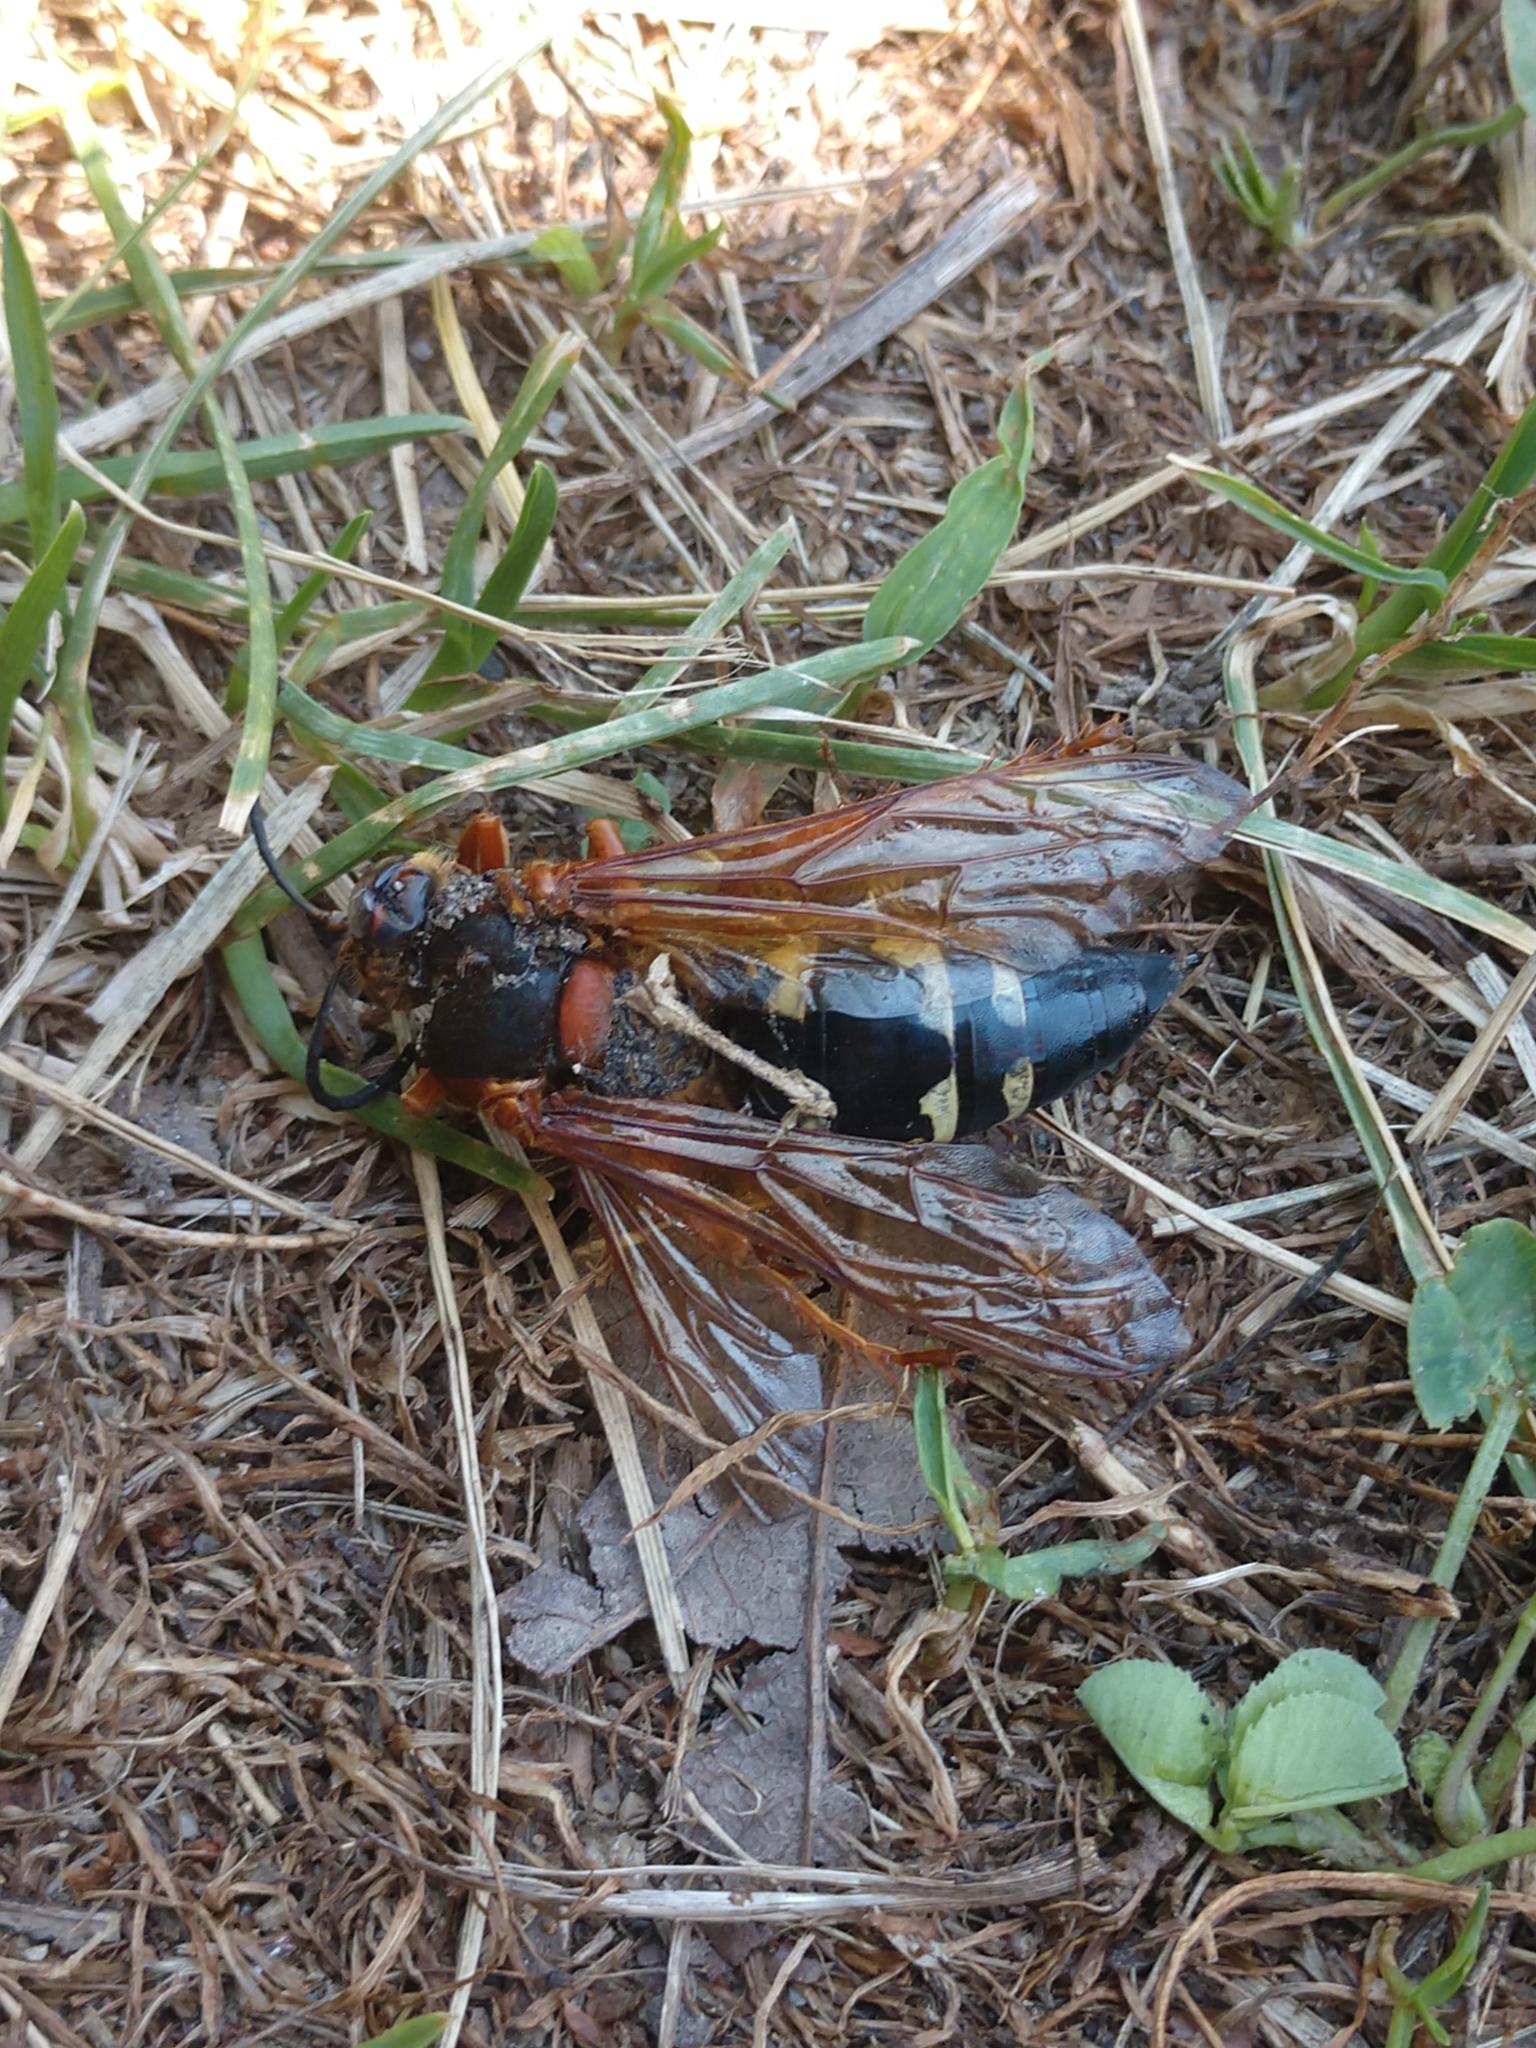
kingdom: Animalia
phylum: Arthropoda
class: Insecta
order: Hymenoptera
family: Crabronidae
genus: Sphecius
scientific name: Sphecius speciosus
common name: Cicada killer
